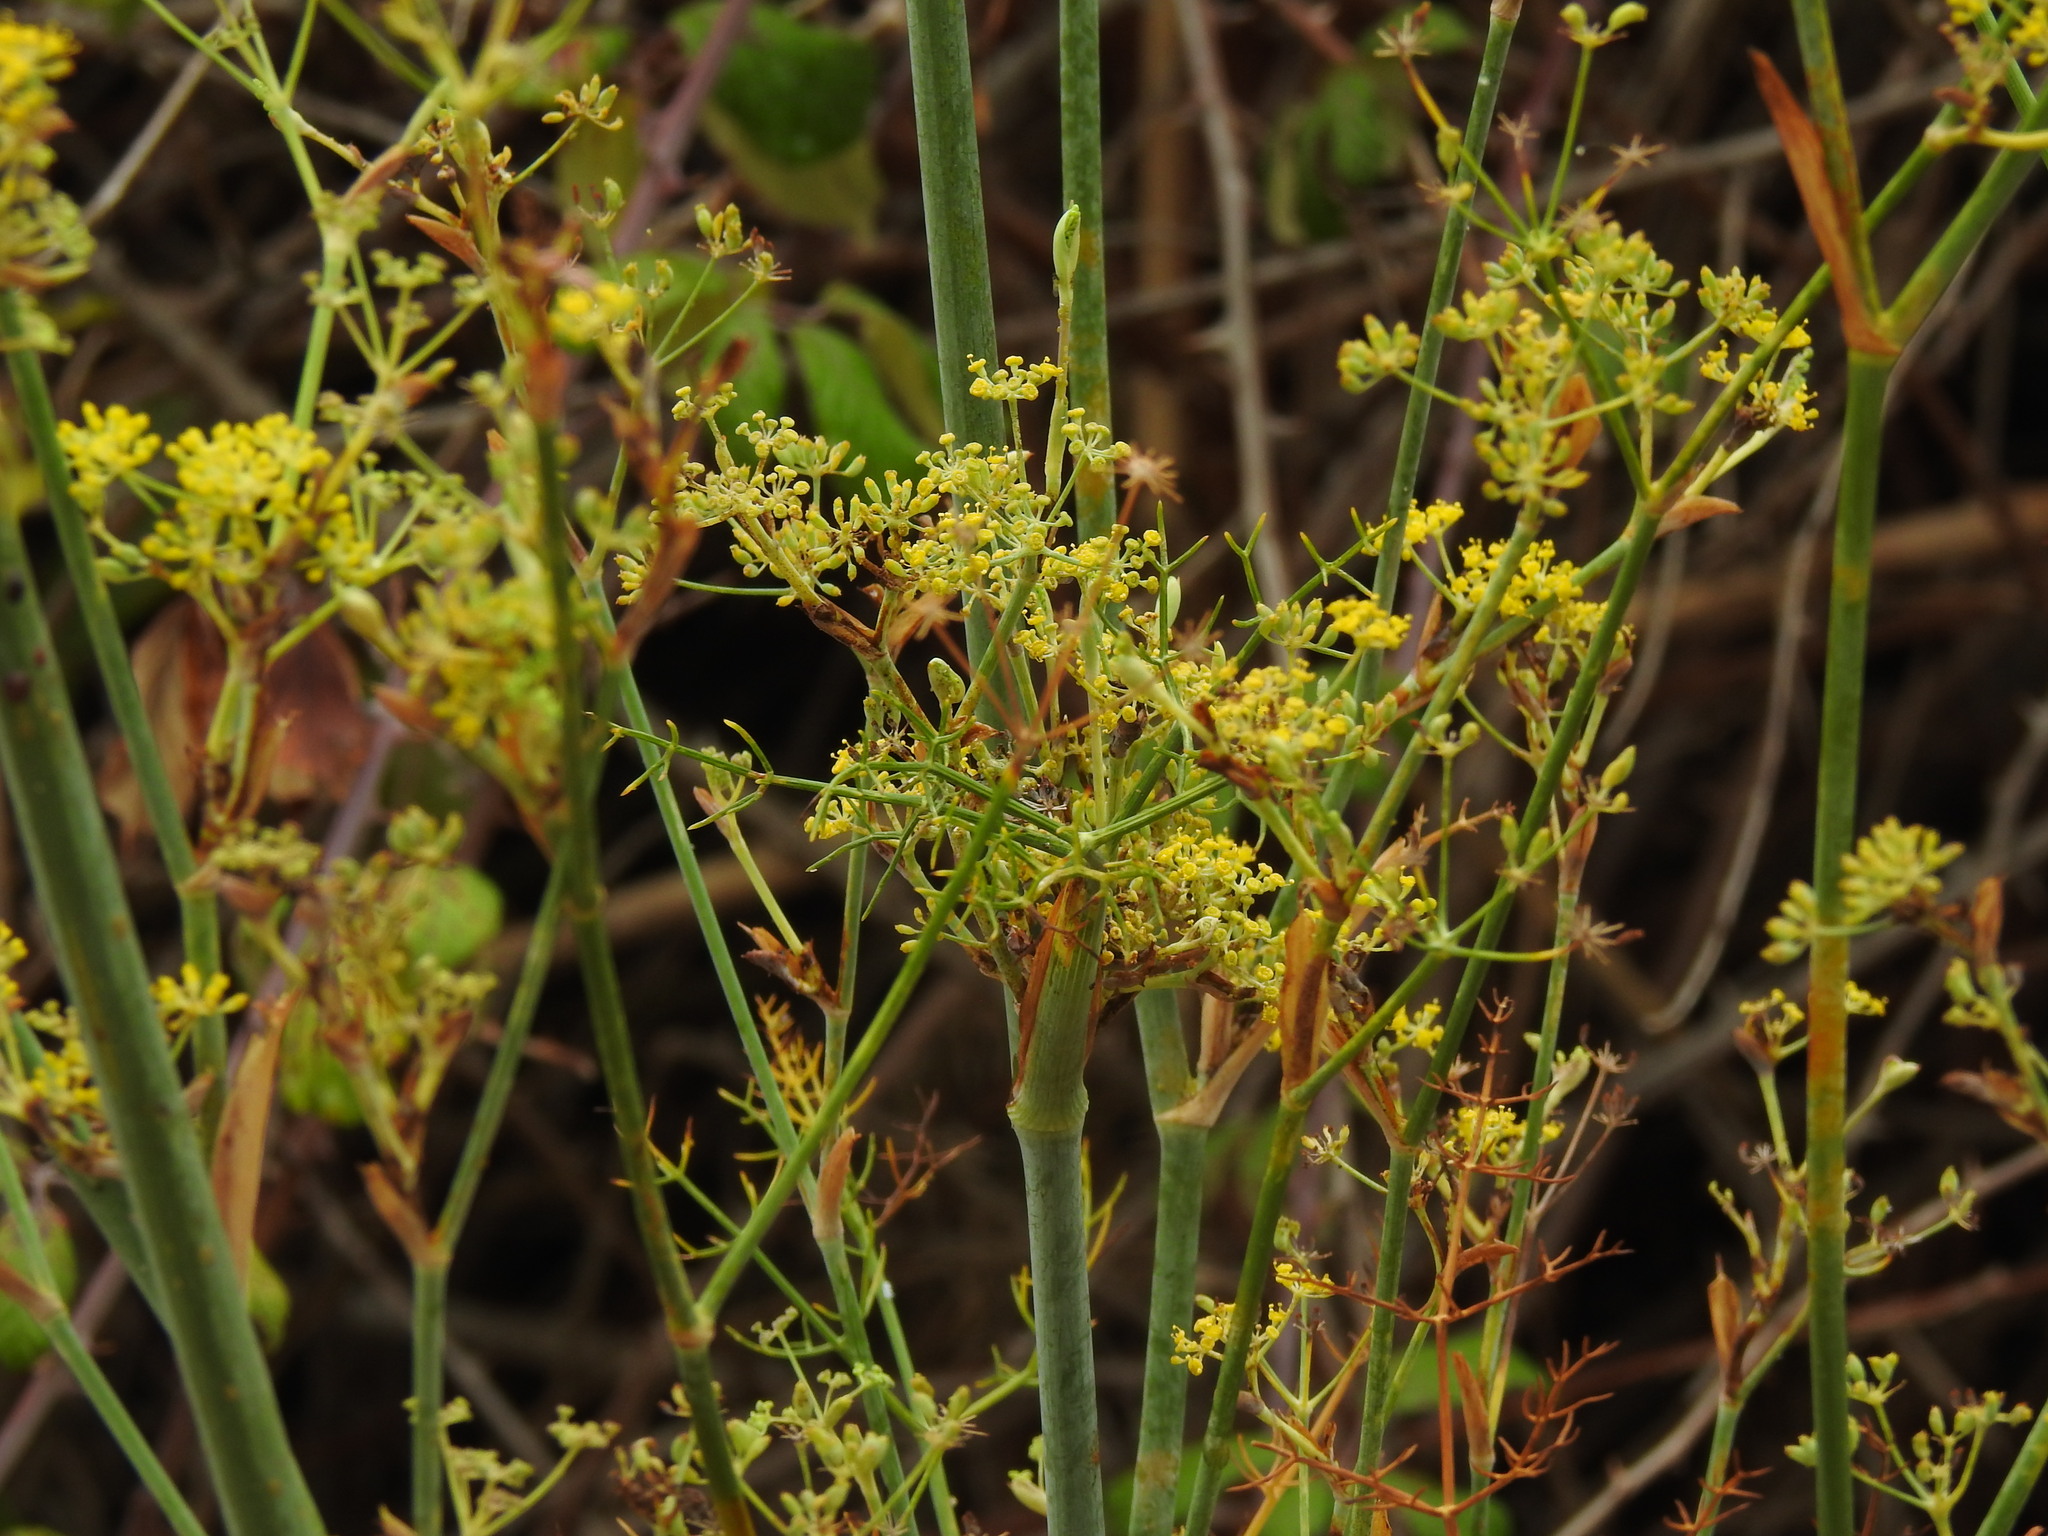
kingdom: Plantae
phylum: Tracheophyta
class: Magnoliopsida
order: Apiales
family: Apiaceae
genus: Foeniculum
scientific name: Foeniculum vulgare
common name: Fennel
